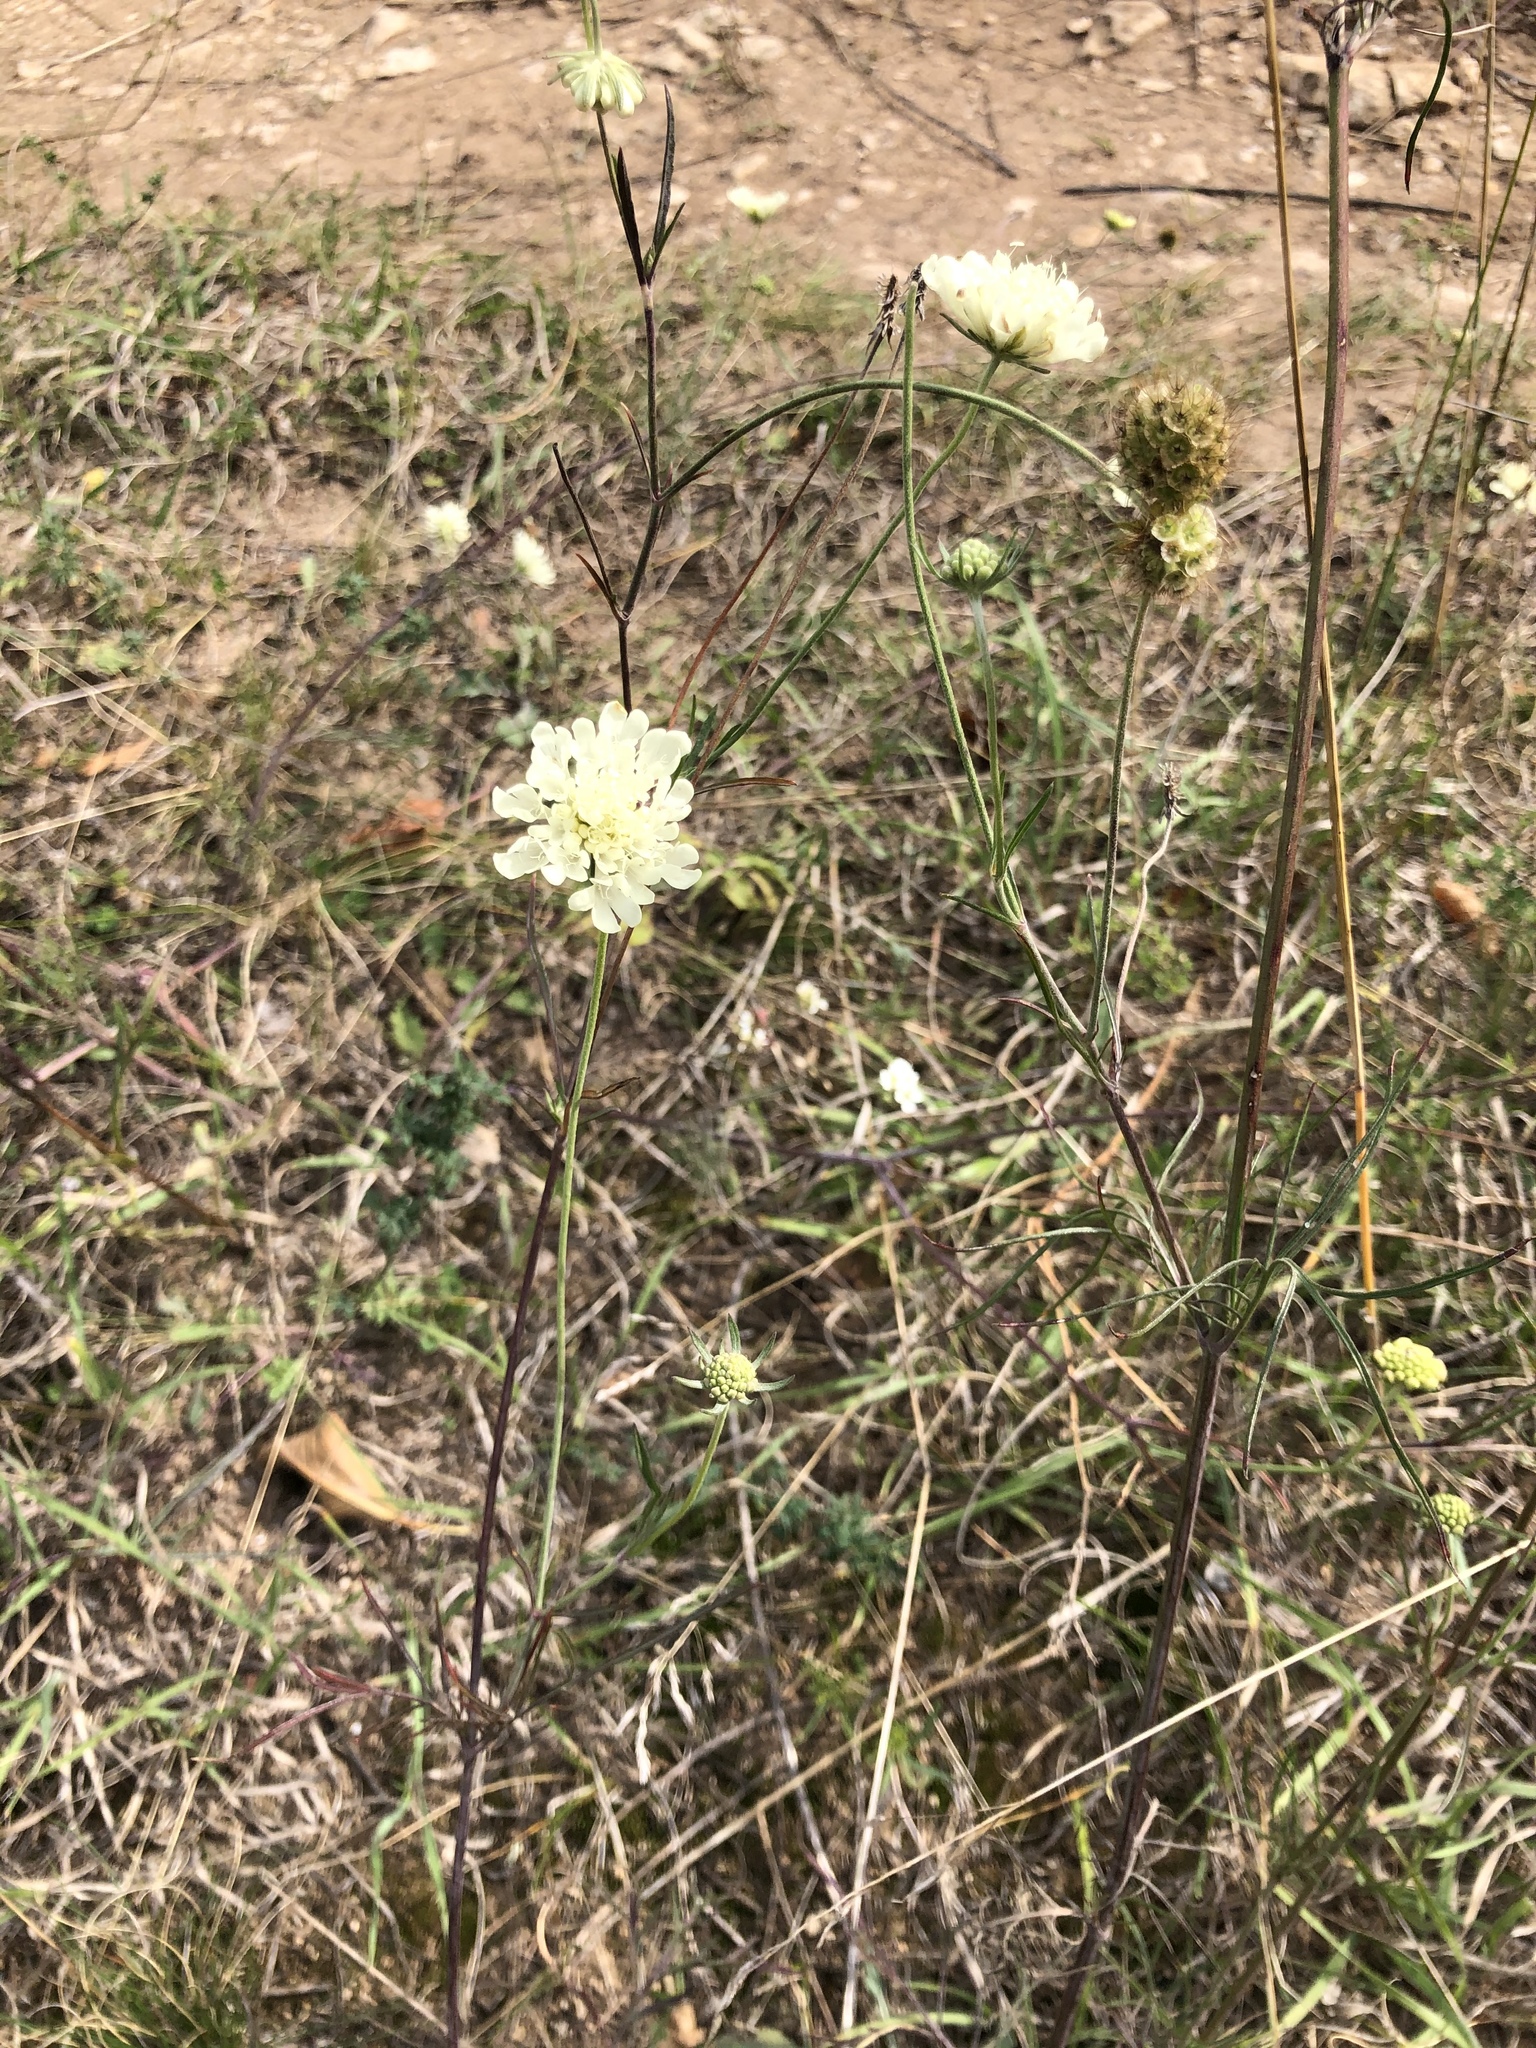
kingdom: Plantae
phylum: Tracheophyta
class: Magnoliopsida
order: Dipsacales
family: Caprifoliaceae
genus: Scabiosa
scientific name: Scabiosa ochroleuca
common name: Cream pincushions
